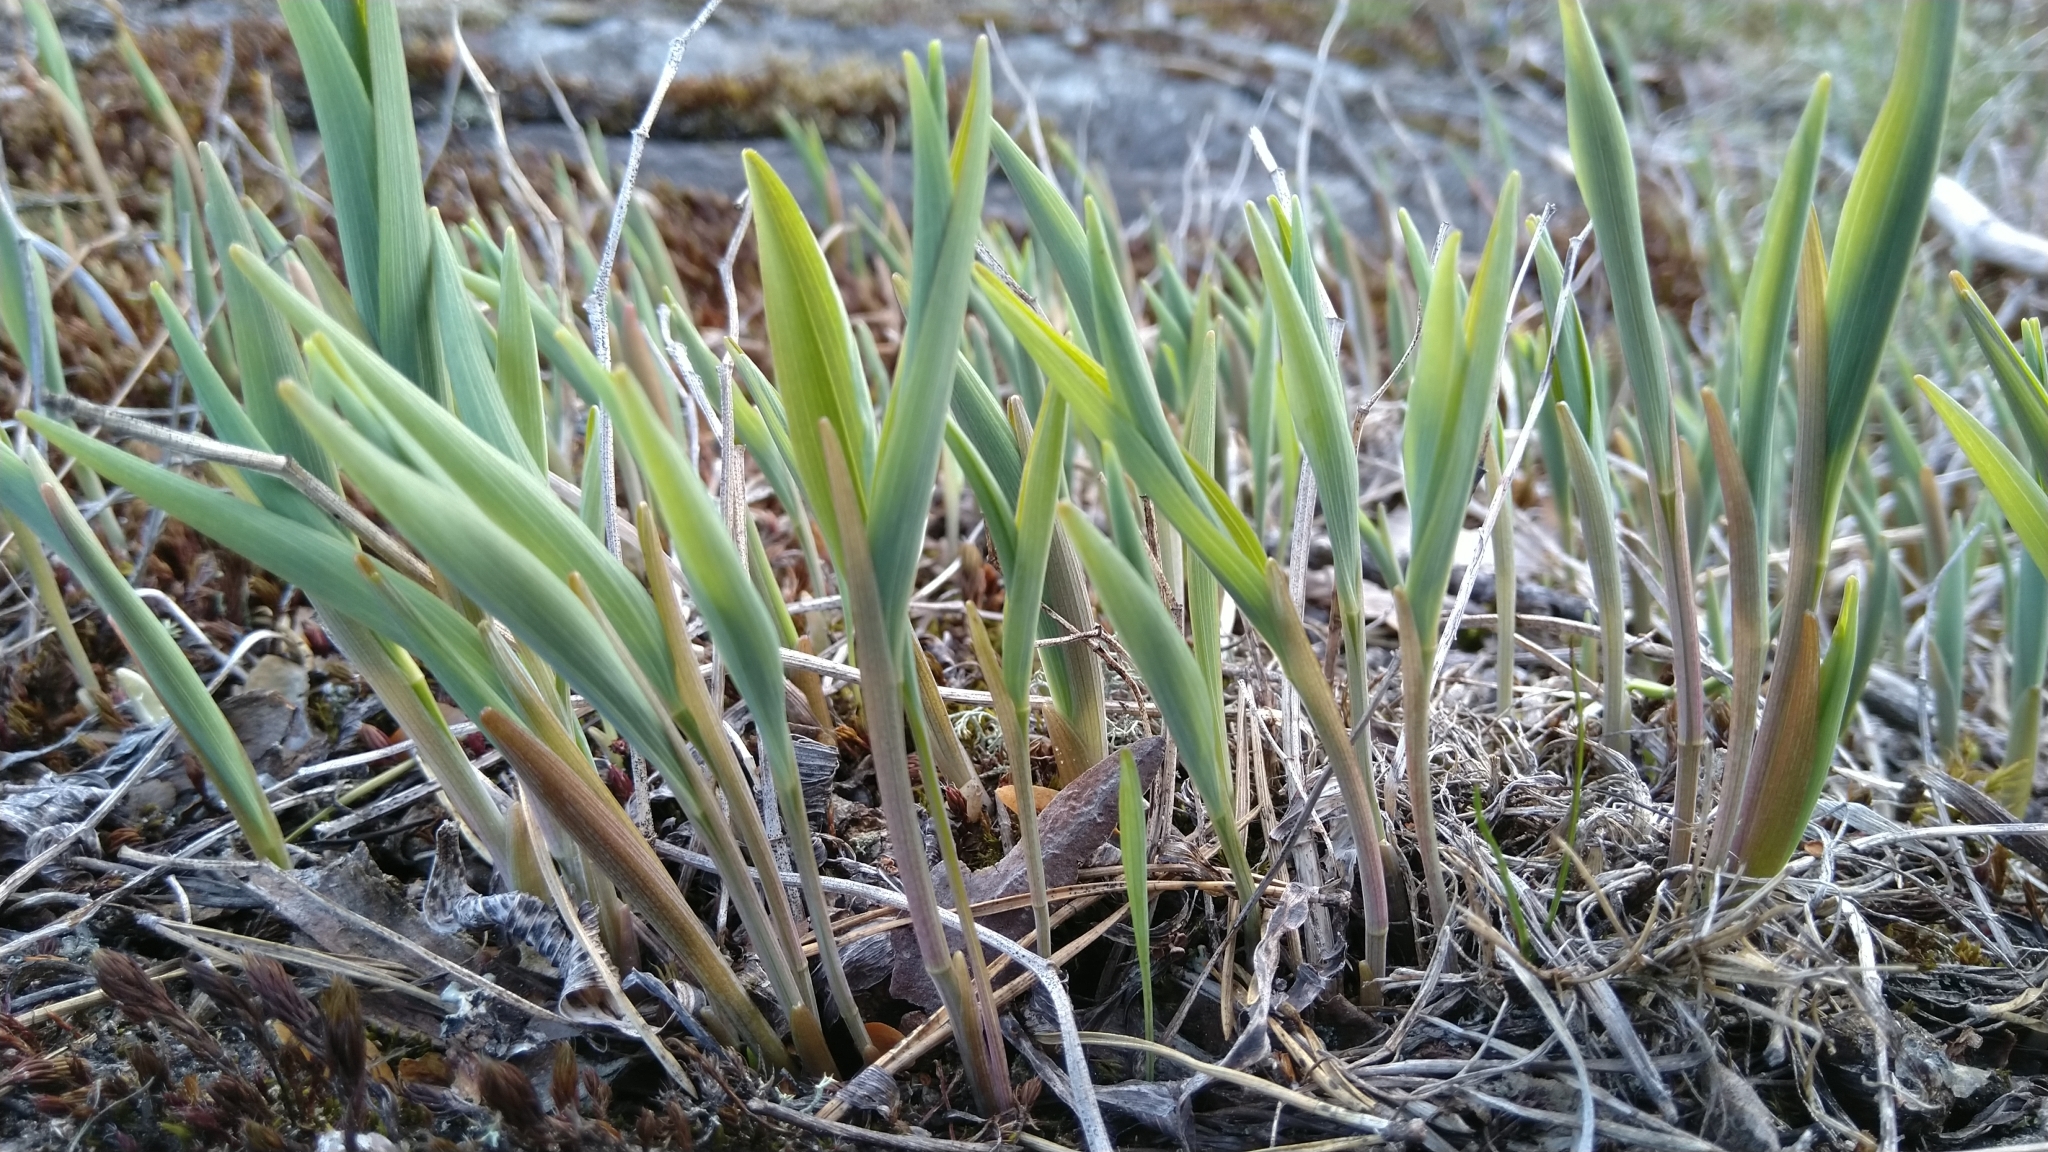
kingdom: Plantae
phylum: Tracheophyta
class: Liliopsida
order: Asparagales
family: Asparagaceae
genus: Polygonatum
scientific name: Polygonatum odoratum
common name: Angular solomon's-seal
